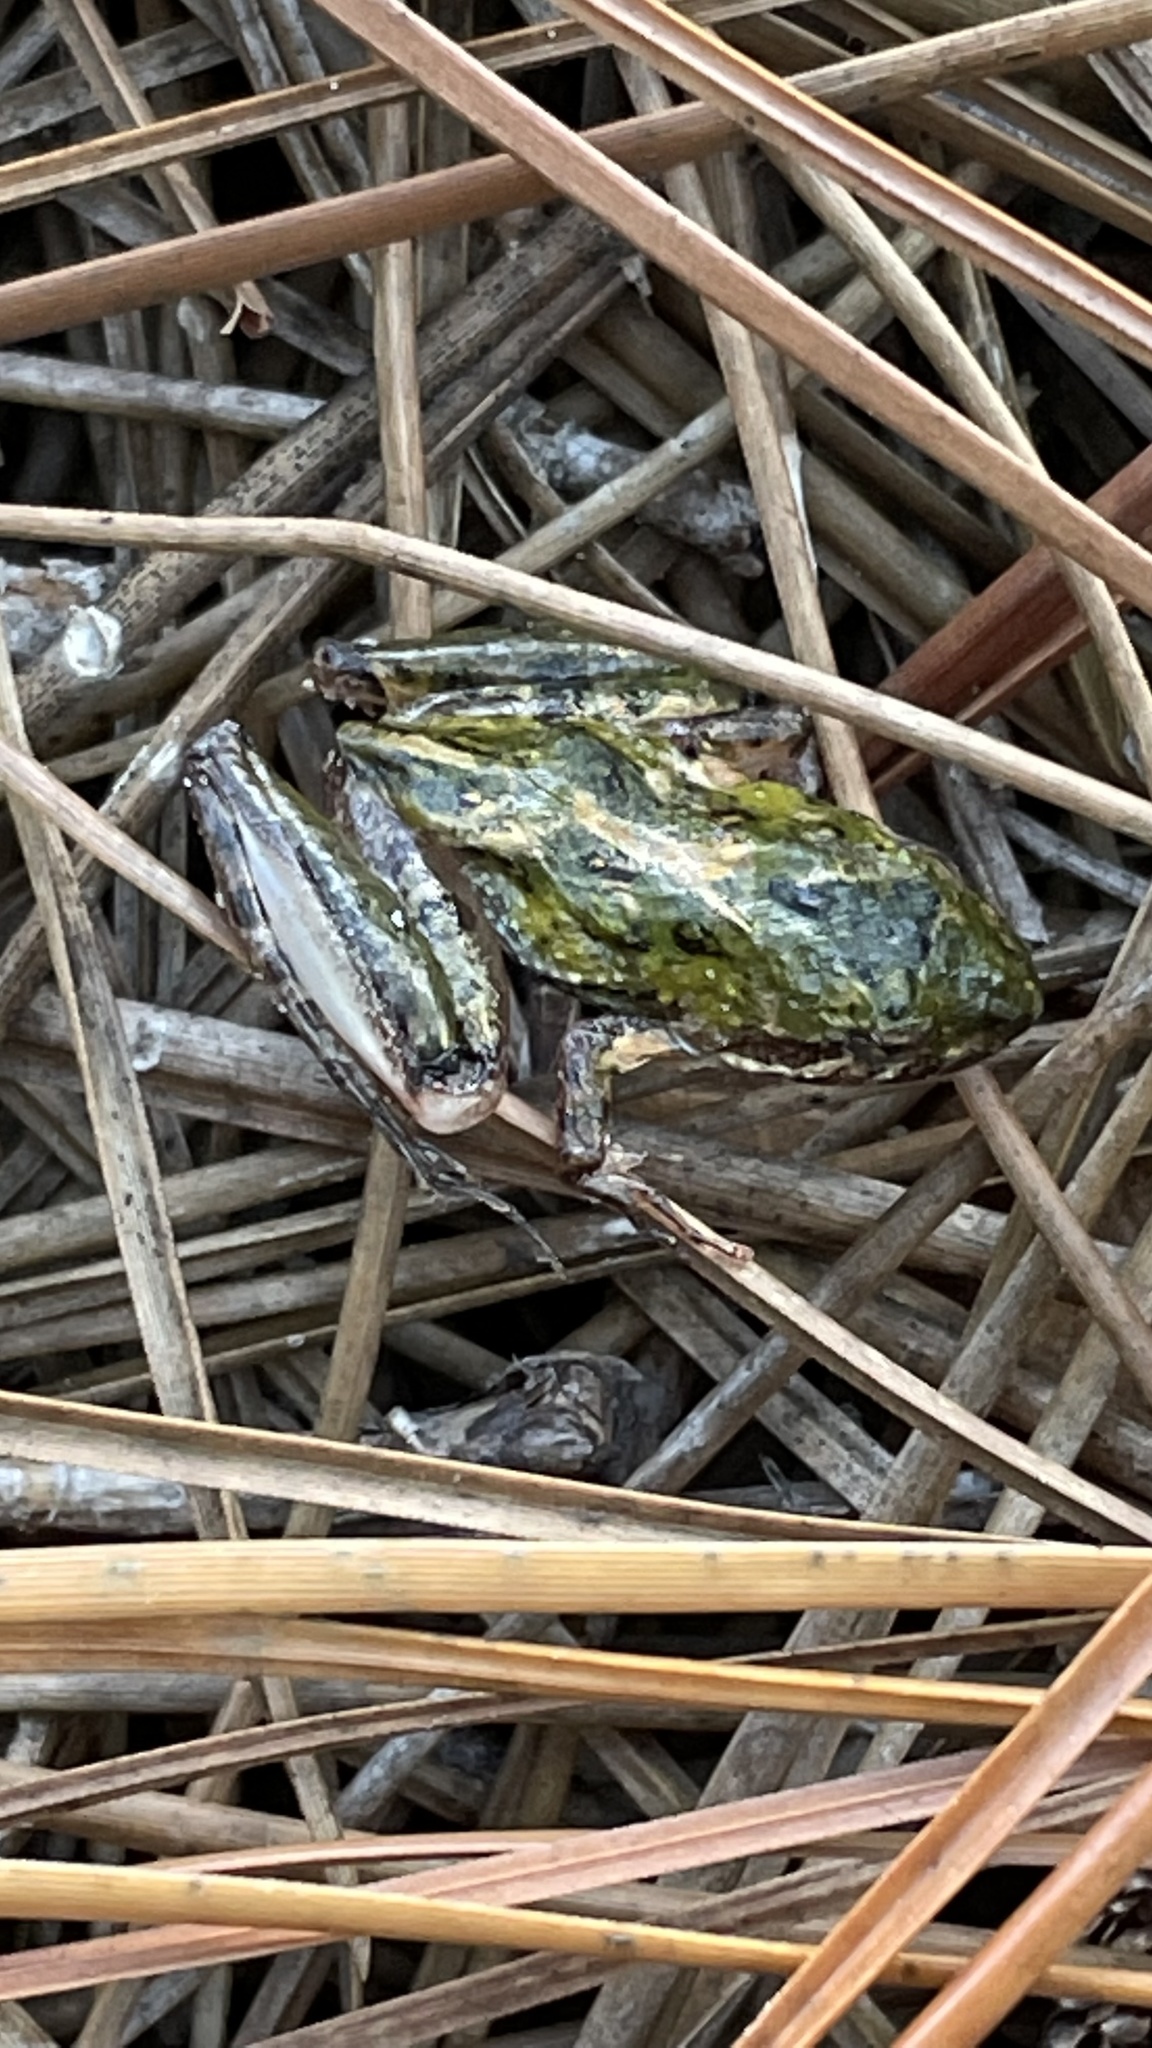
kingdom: Animalia
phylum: Chordata
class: Amphibia
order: Anura
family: Hylidae
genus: Acris
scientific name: Acris gryllus
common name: Southern cricket frog
